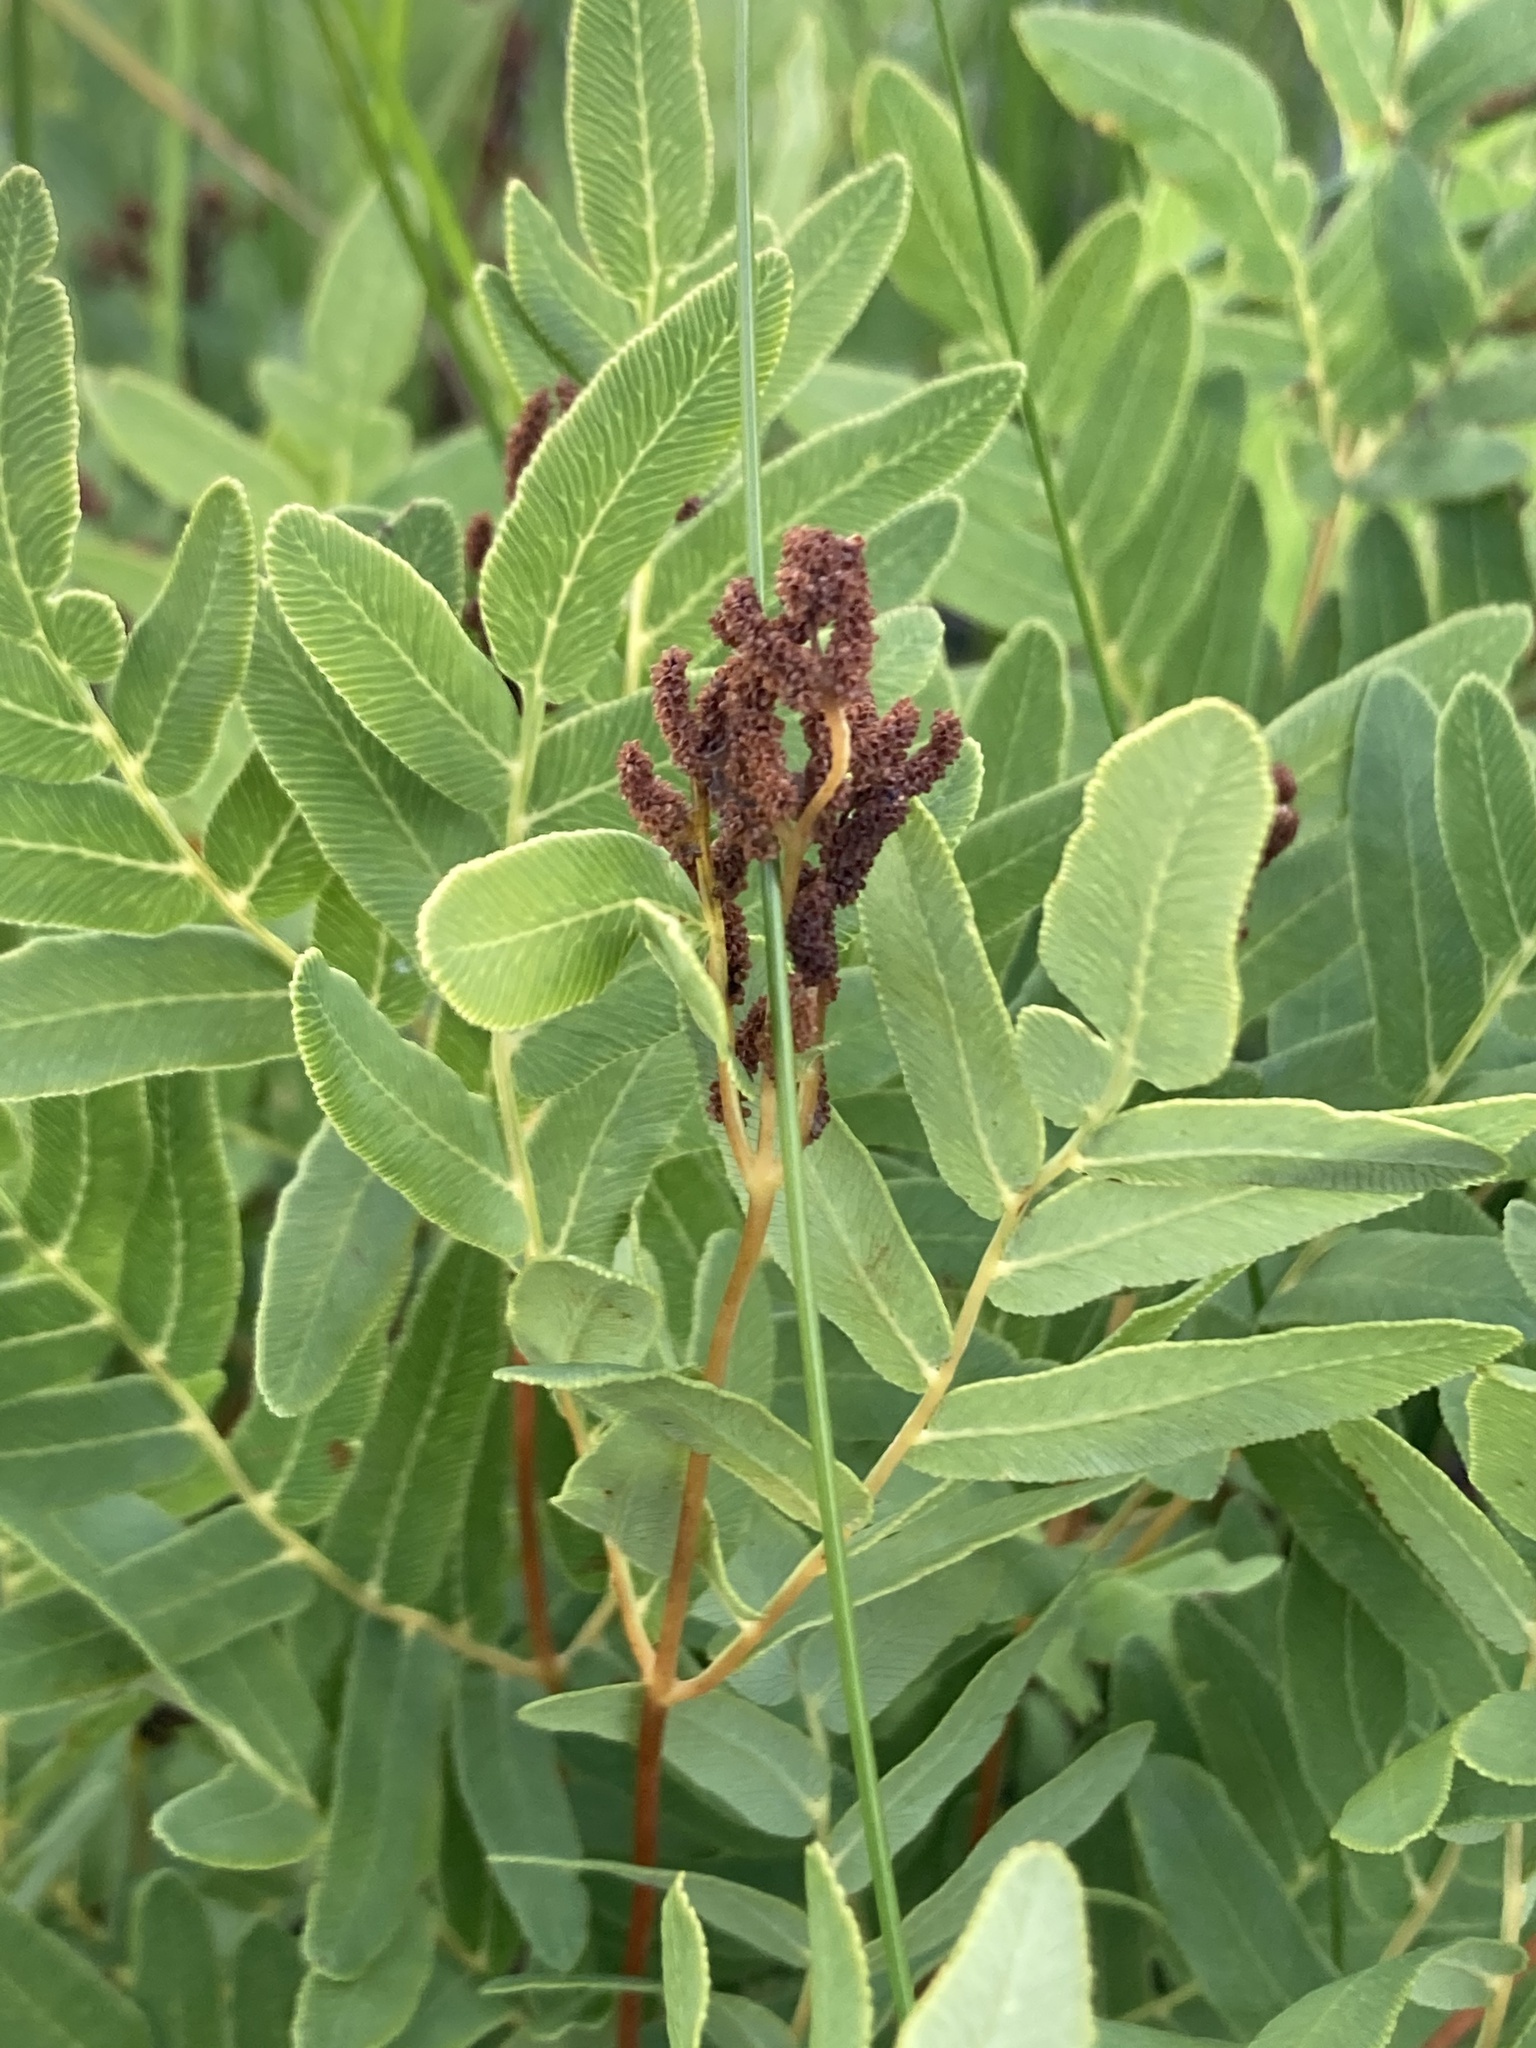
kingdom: Plantae
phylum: Tracheophyta
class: Polypodiopsida
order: Osmundales
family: Osmundaceae
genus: Osmunda
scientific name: Osmunda spectabilis
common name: American royal fern
